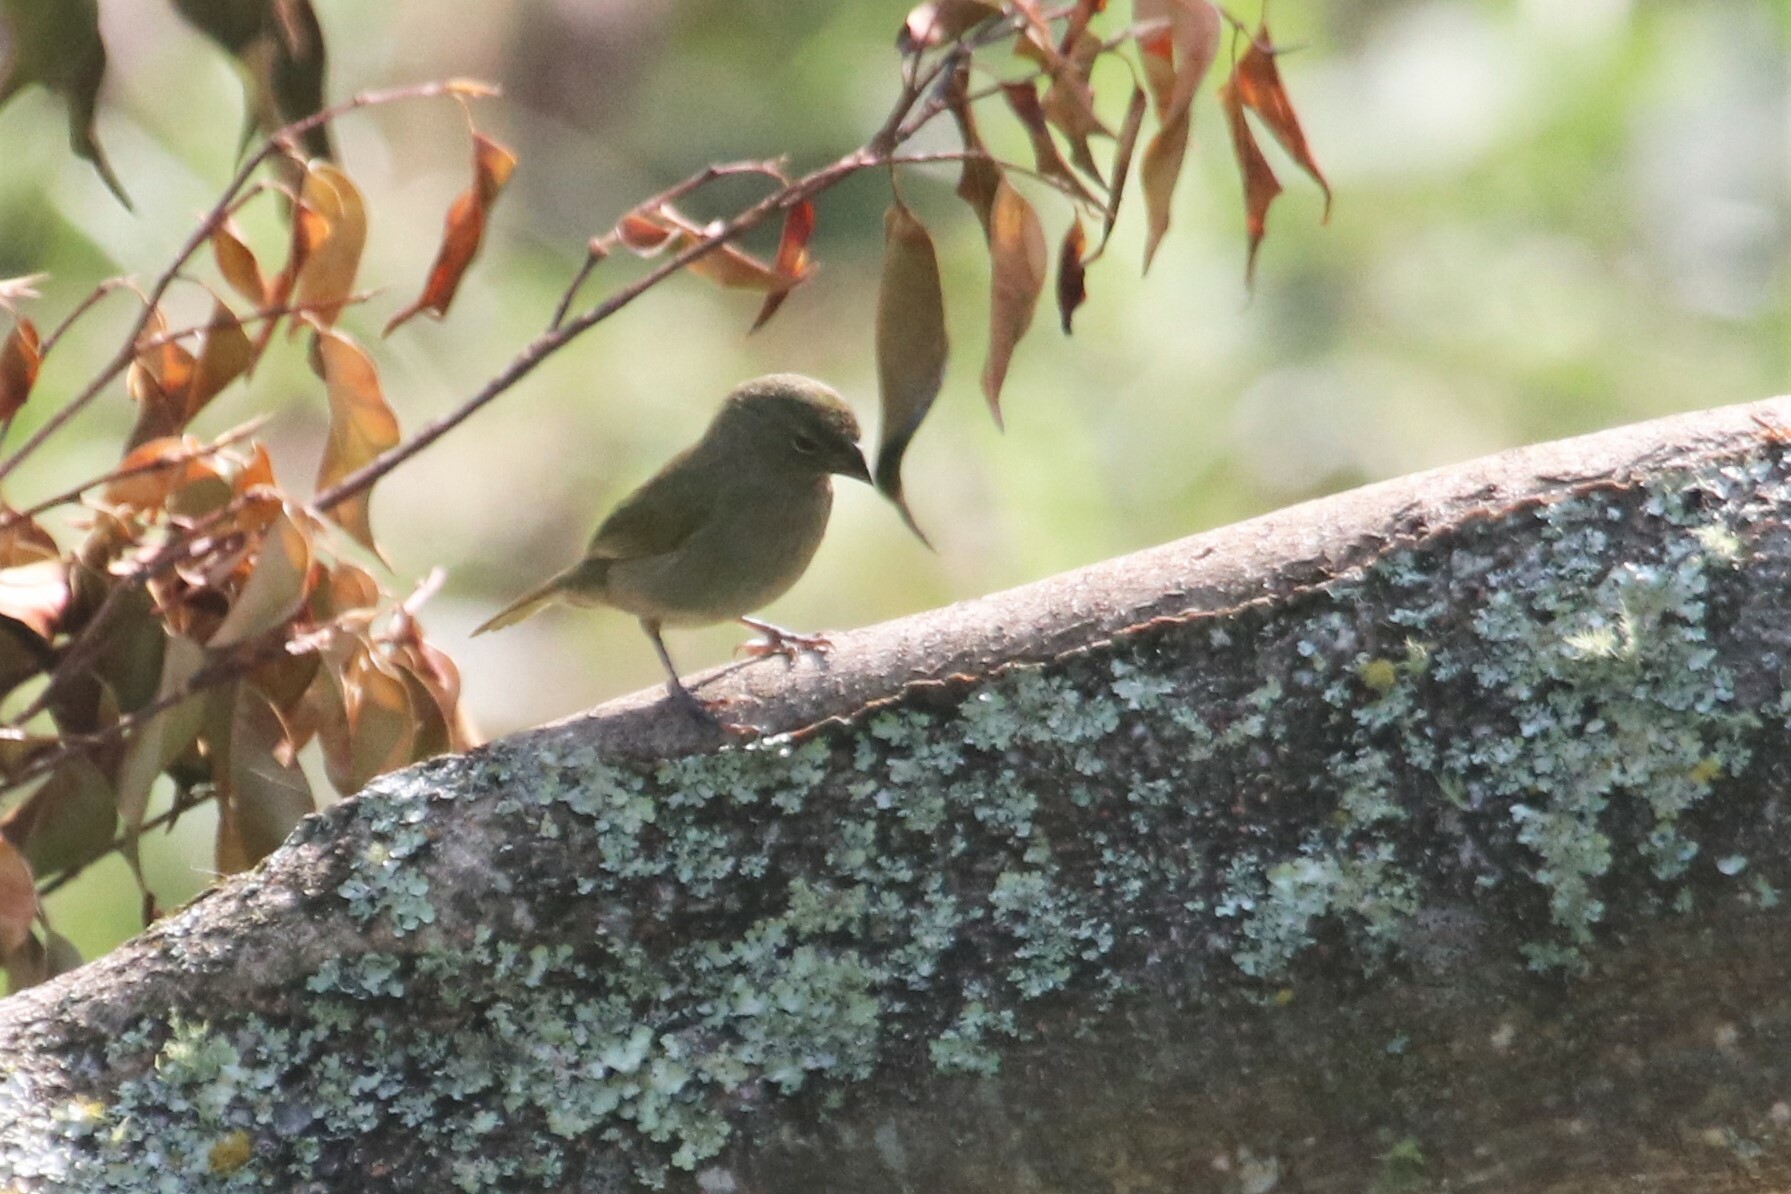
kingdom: Animalia
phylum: Chordata
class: Aves
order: Passeriformes
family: Thraupidae
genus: Tiaris
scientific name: Tiaris olivaceus
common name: Yellow-faced grassquit
